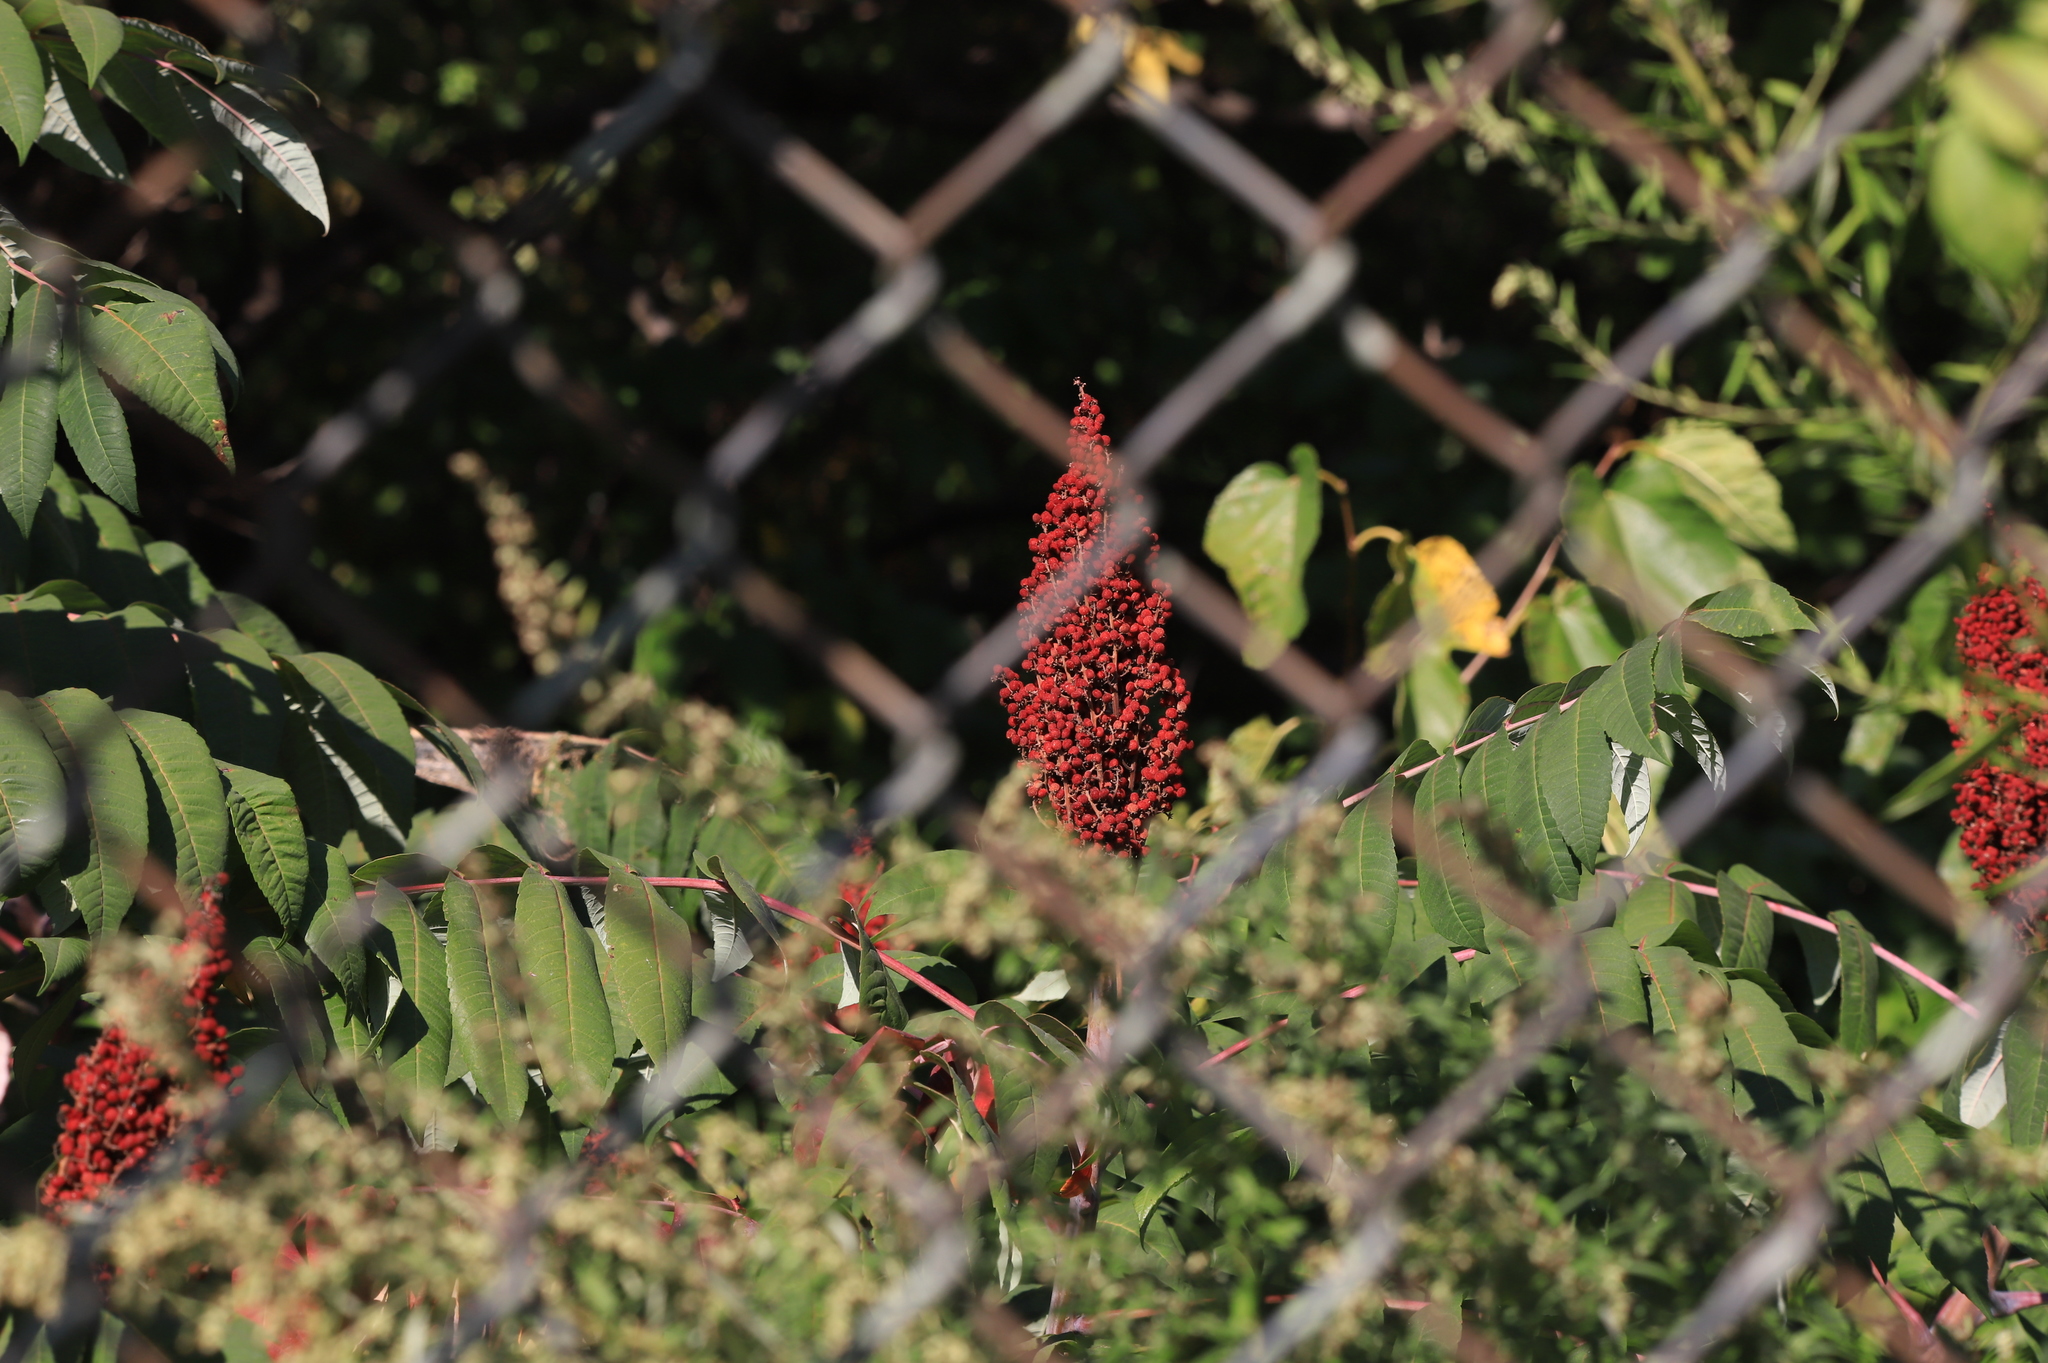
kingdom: Plantae
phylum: Tracheophyta
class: Magnoliopsida
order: Sapindales
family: Anacardiaceae
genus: Rhus
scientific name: Rhus glabra
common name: Scarlet sumac
